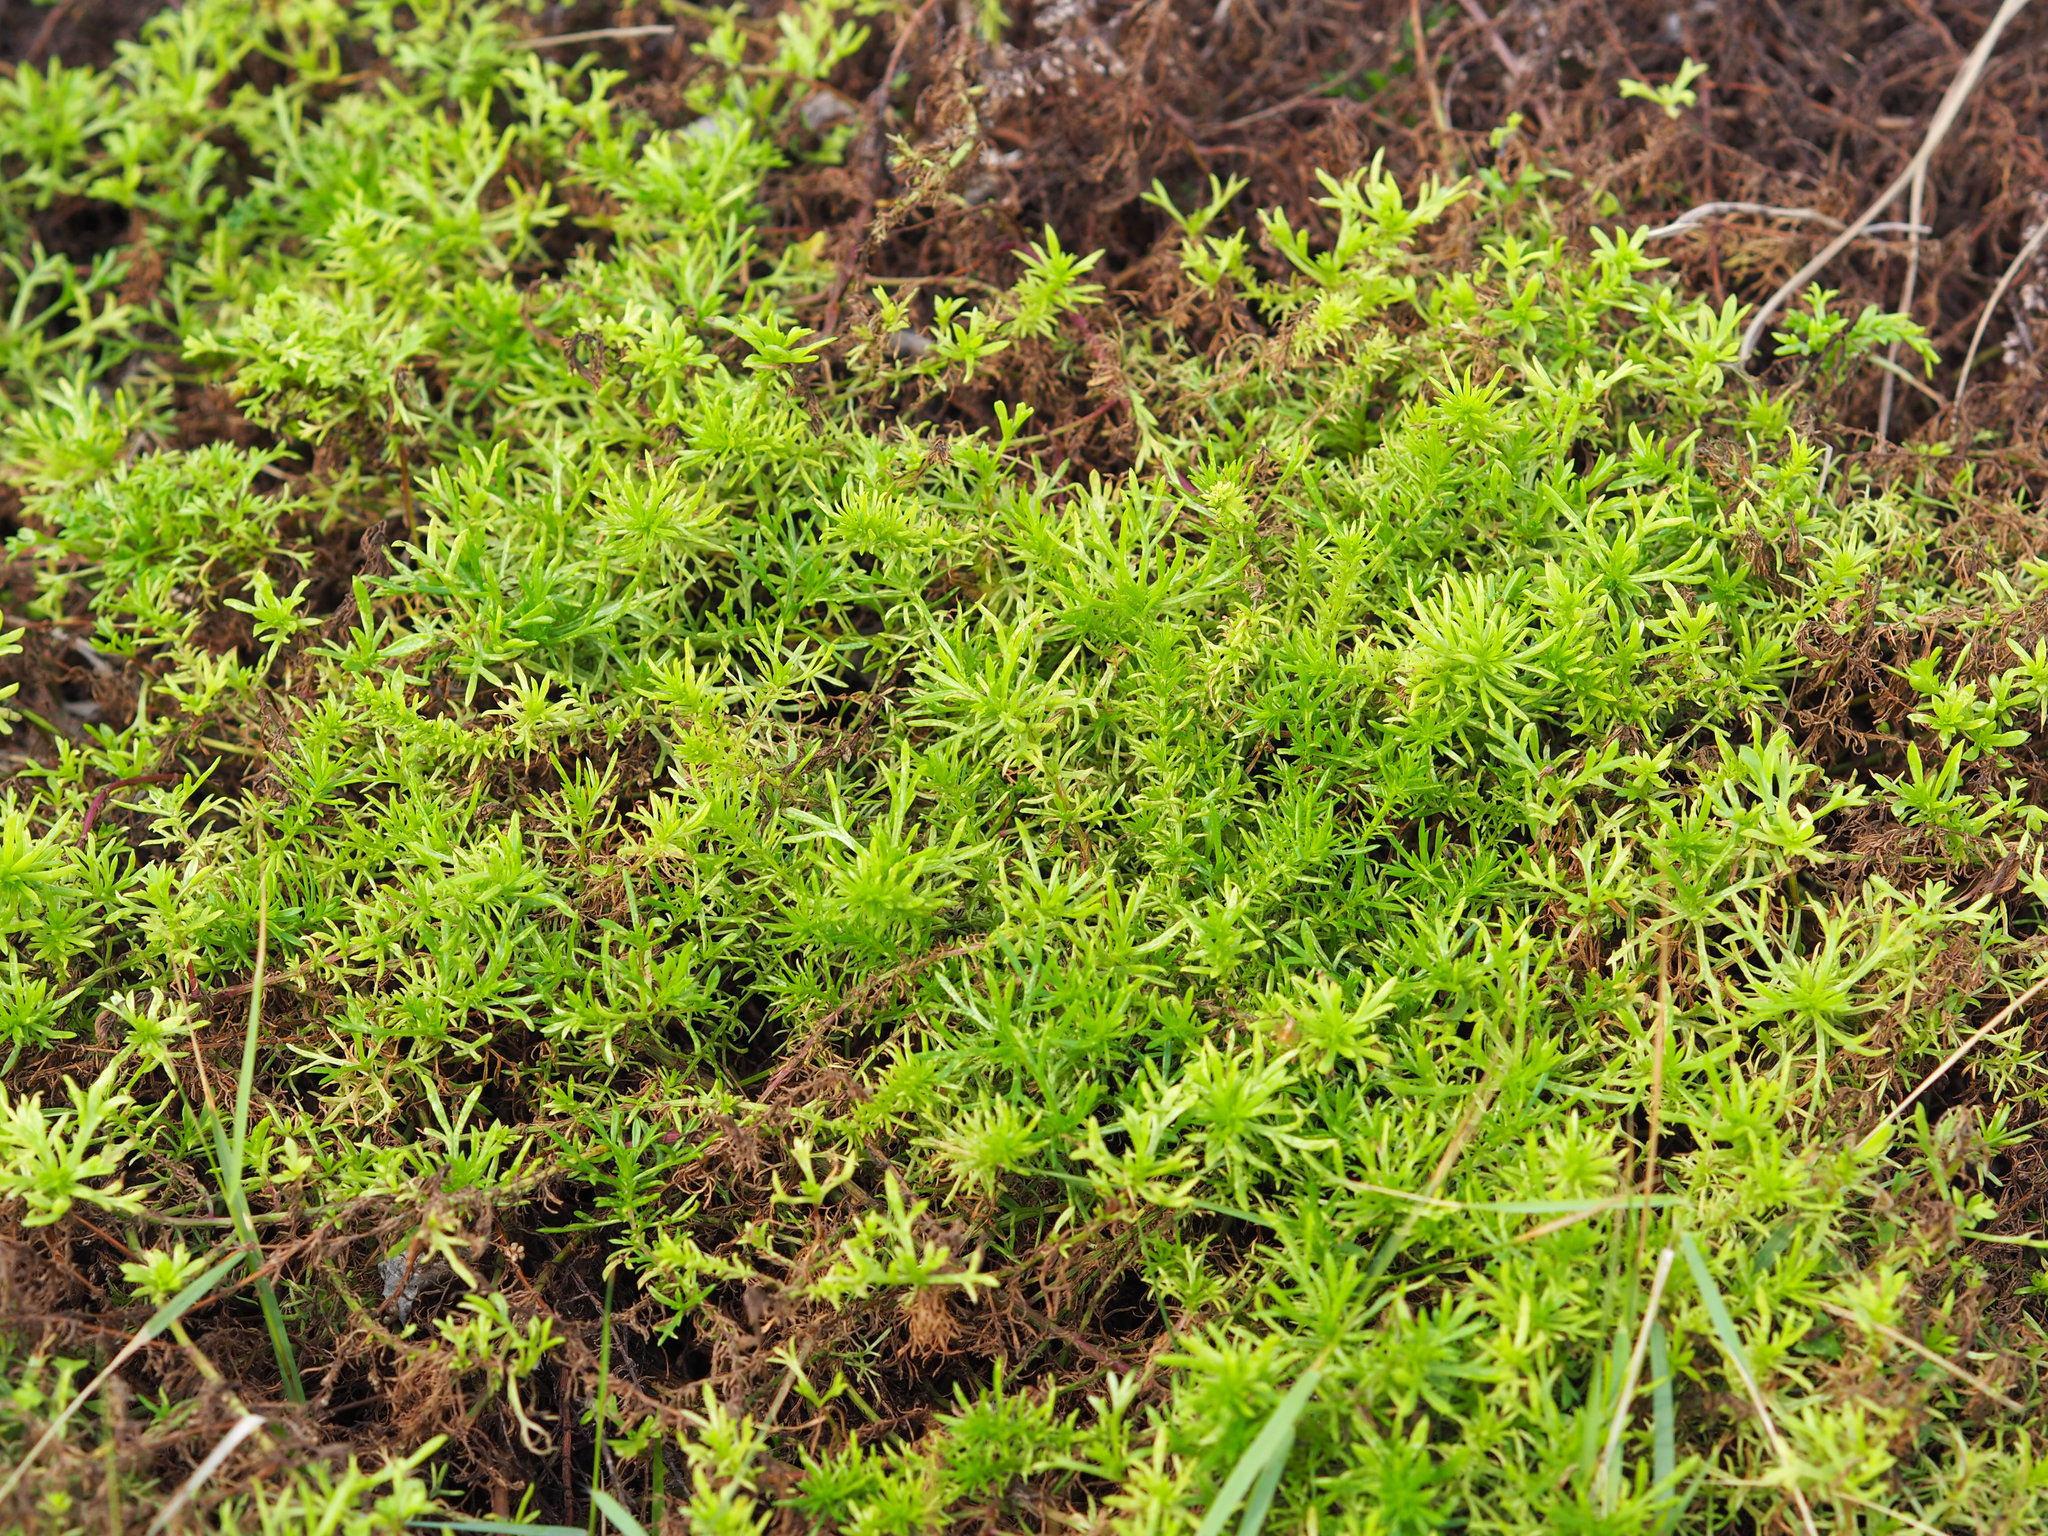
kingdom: Plantae
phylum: Tracheophyta
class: Magnoliopsida
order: Asterales
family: Asteraceae
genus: Artemisia
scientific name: Artemisia capillaris
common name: Yin-chen wormwood
